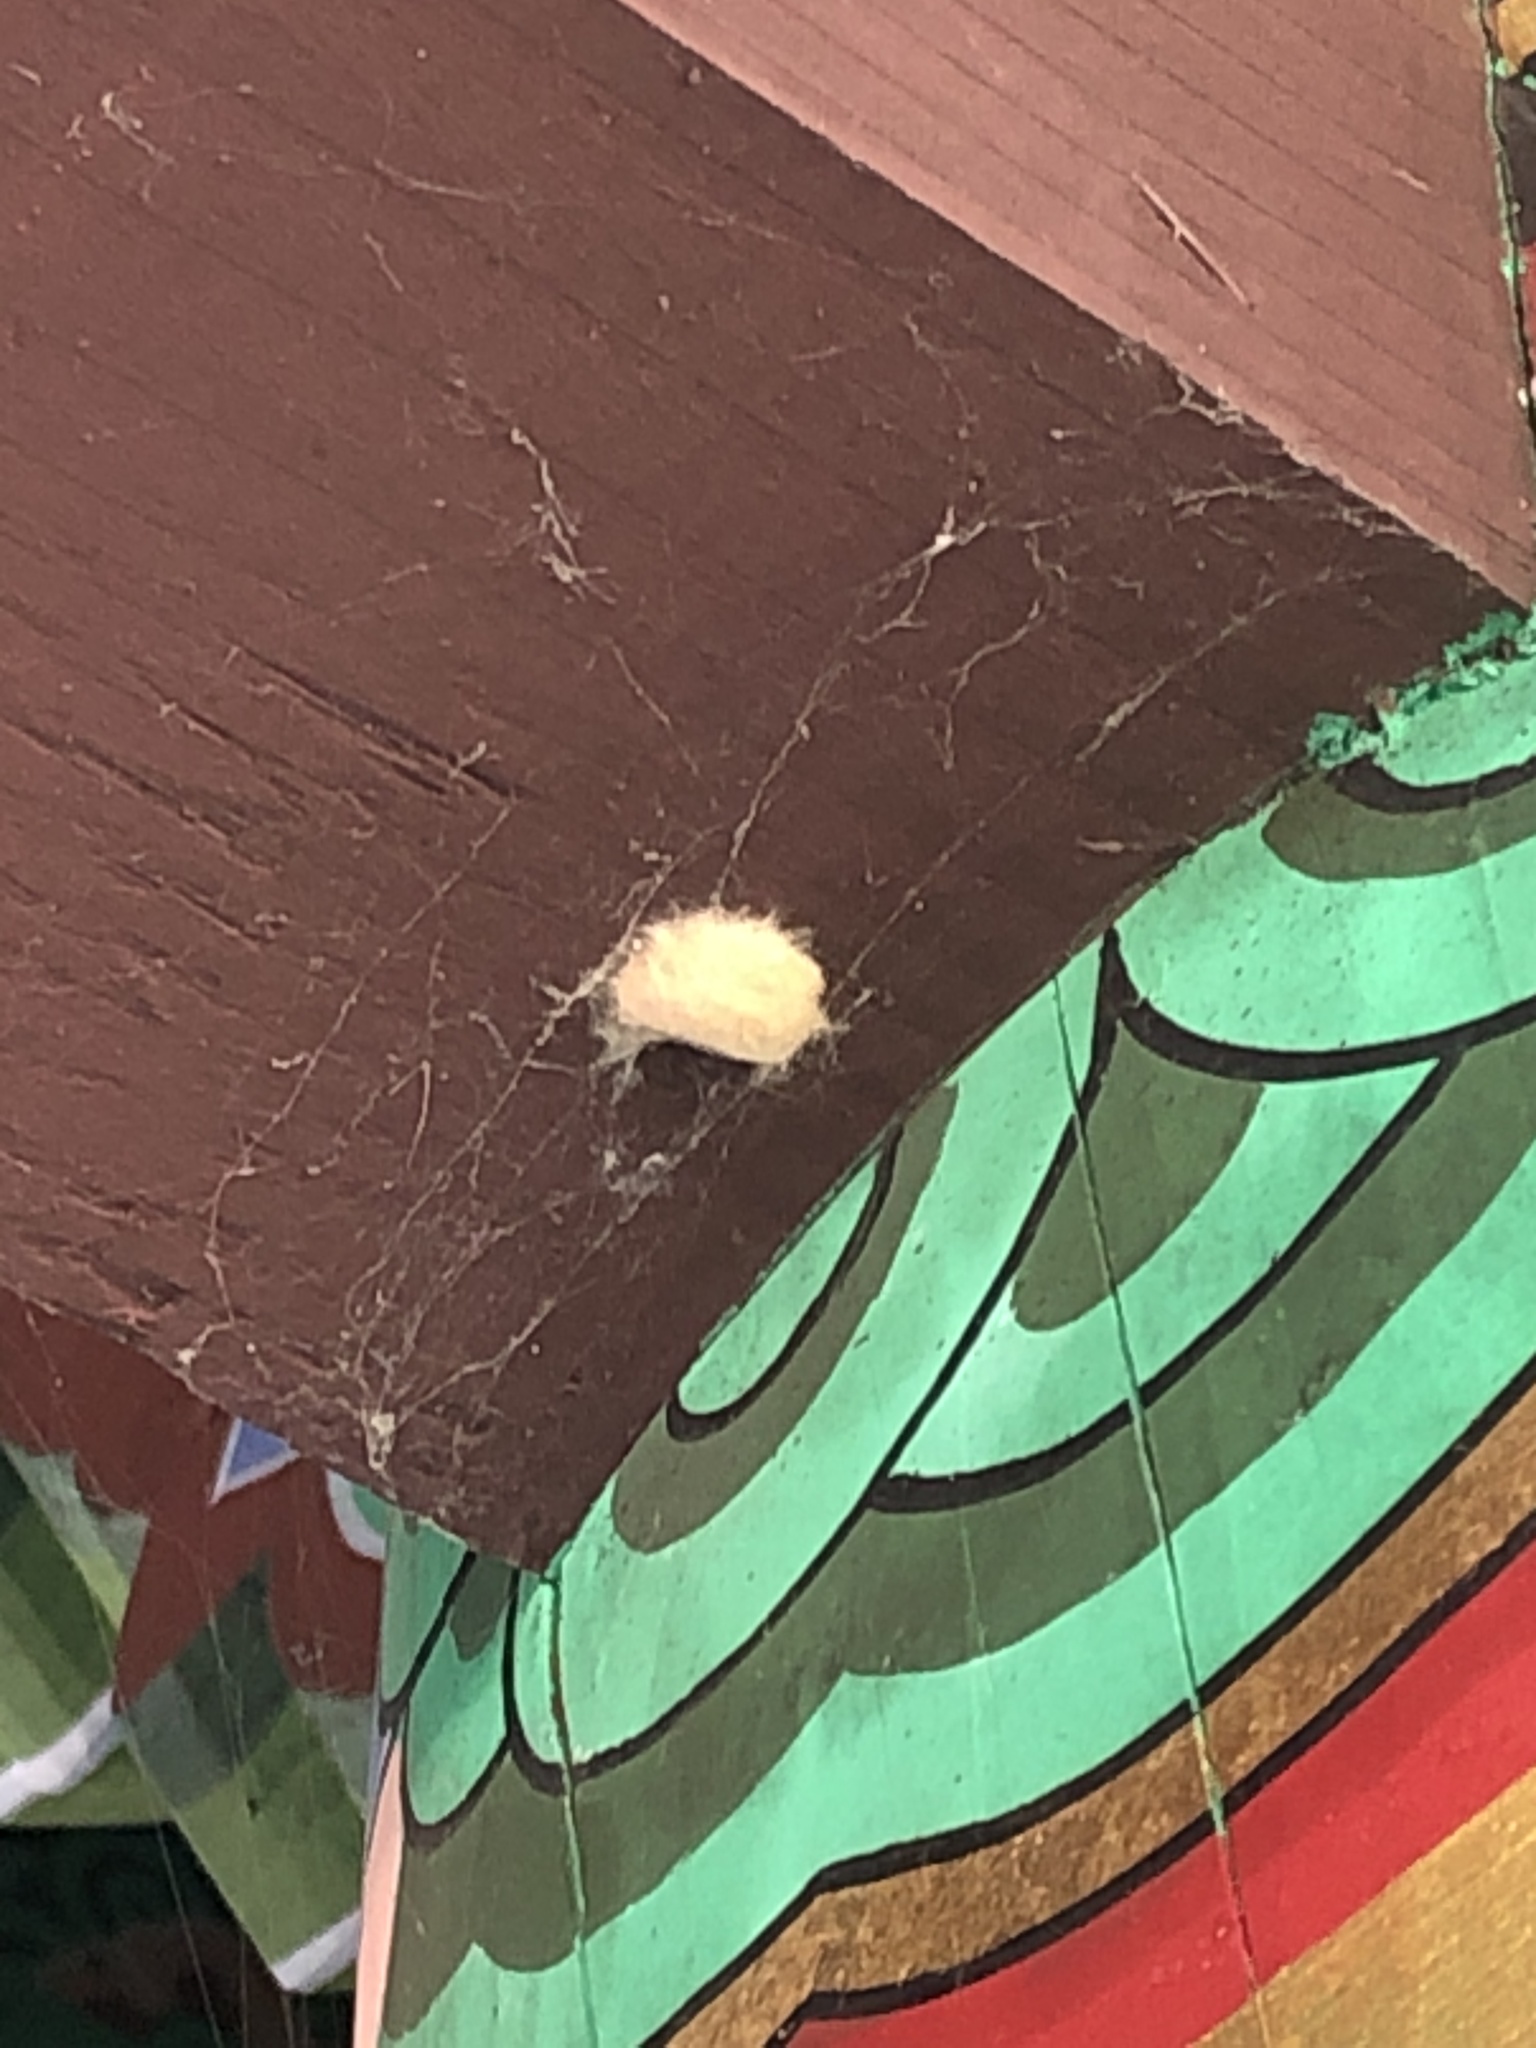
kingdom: Animalia
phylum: Arthropoda
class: Insecta
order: Lepidoptera
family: Erebidae
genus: Lymantria
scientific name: Lymantria dispar
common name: Gypsy moth
